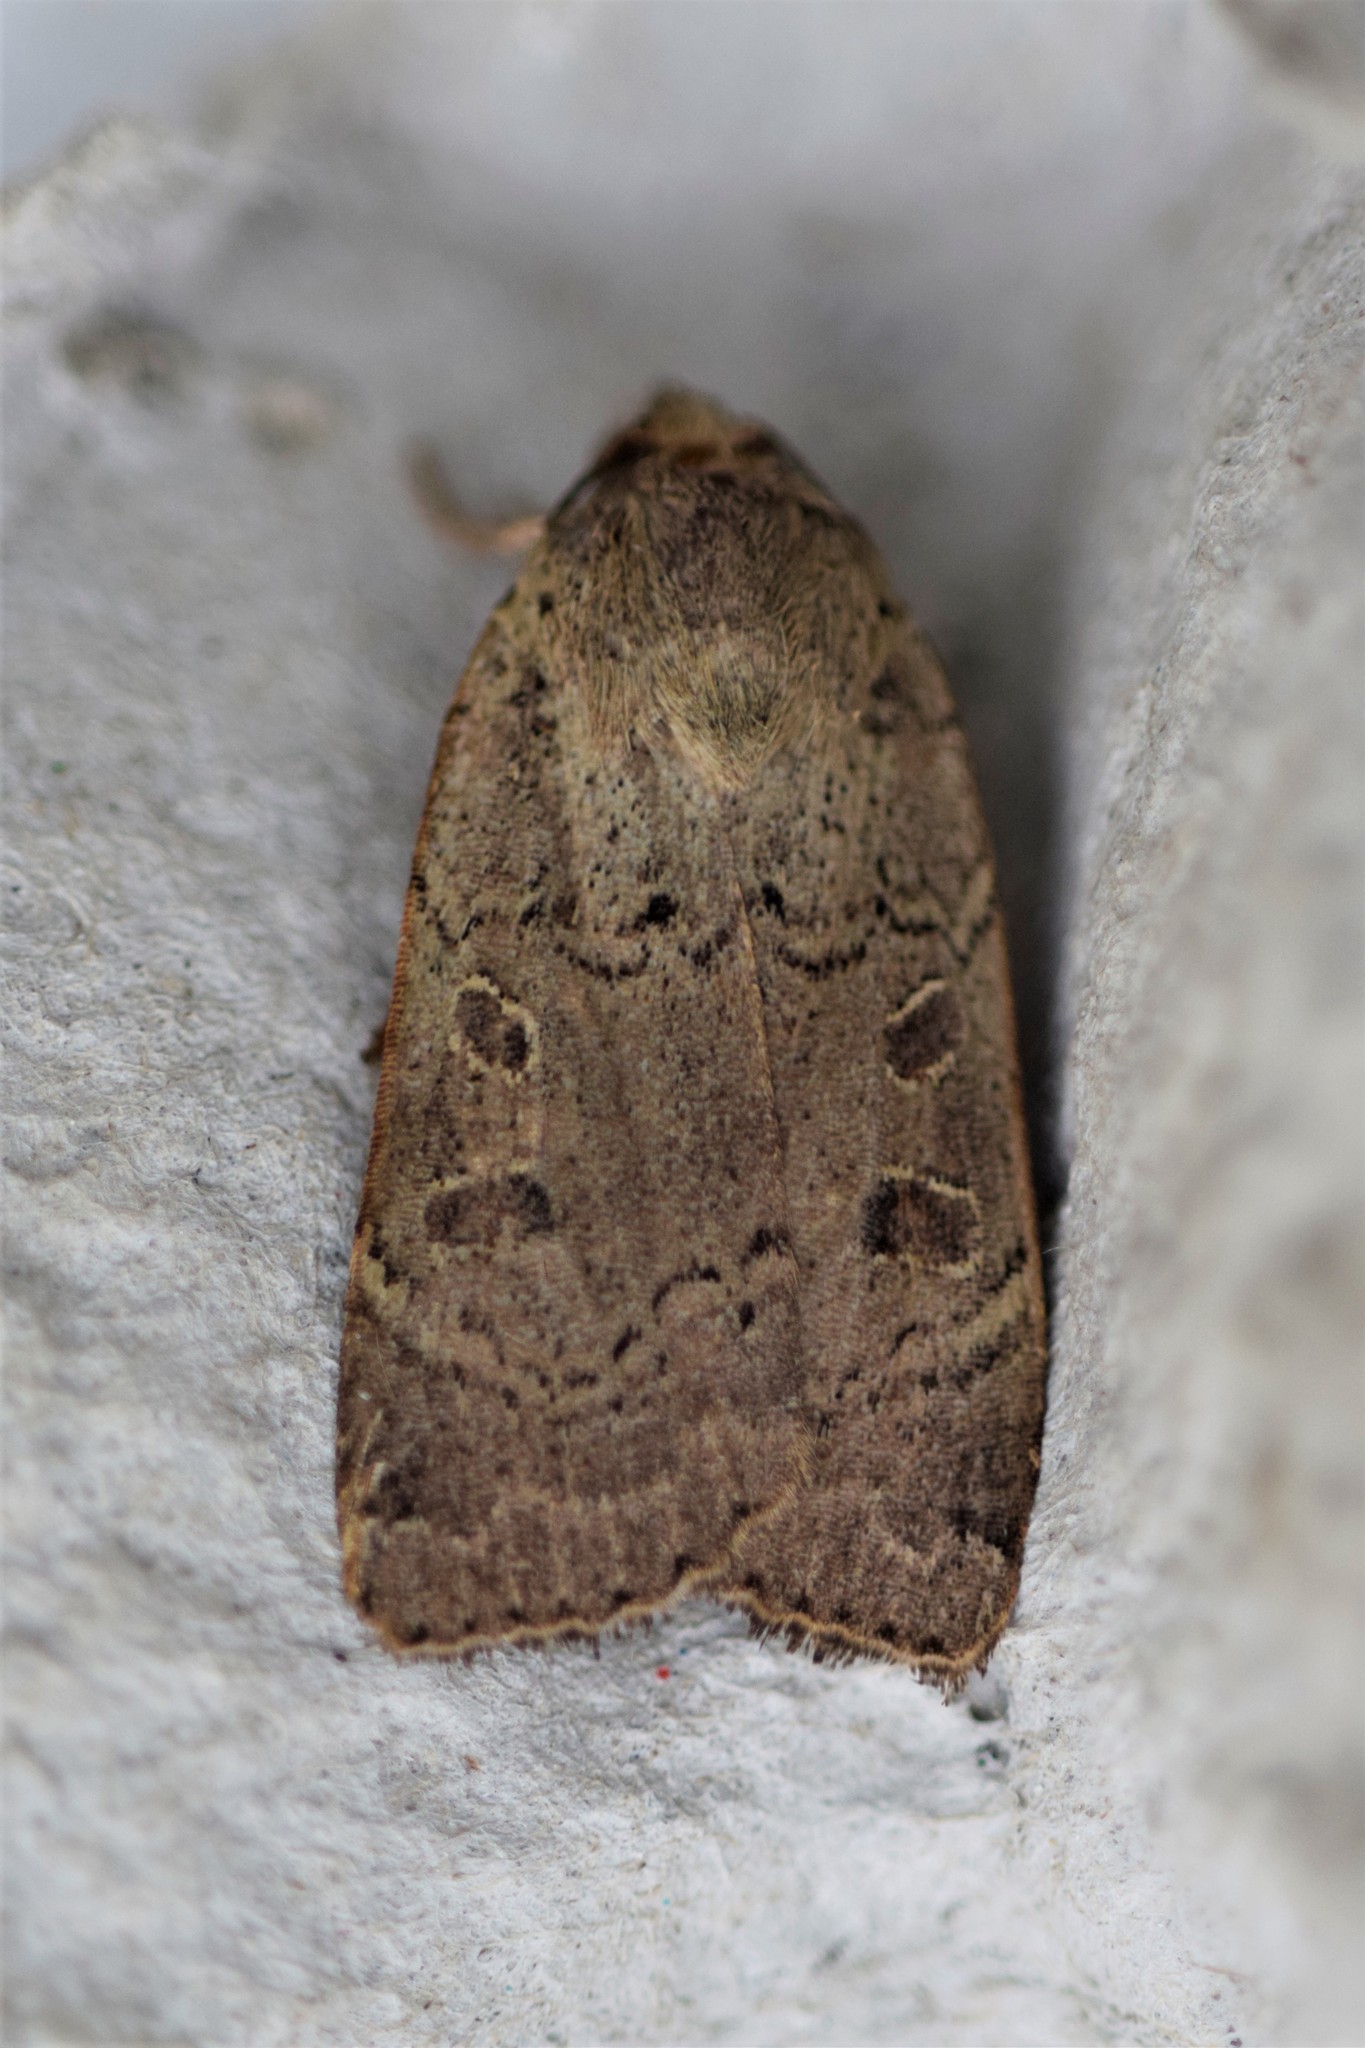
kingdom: Animalia
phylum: Arthropoda
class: Insecta
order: Lepidoptera
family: Noctuidae
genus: Noctua
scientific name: Noctua comes
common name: Lesser yellow underwing
